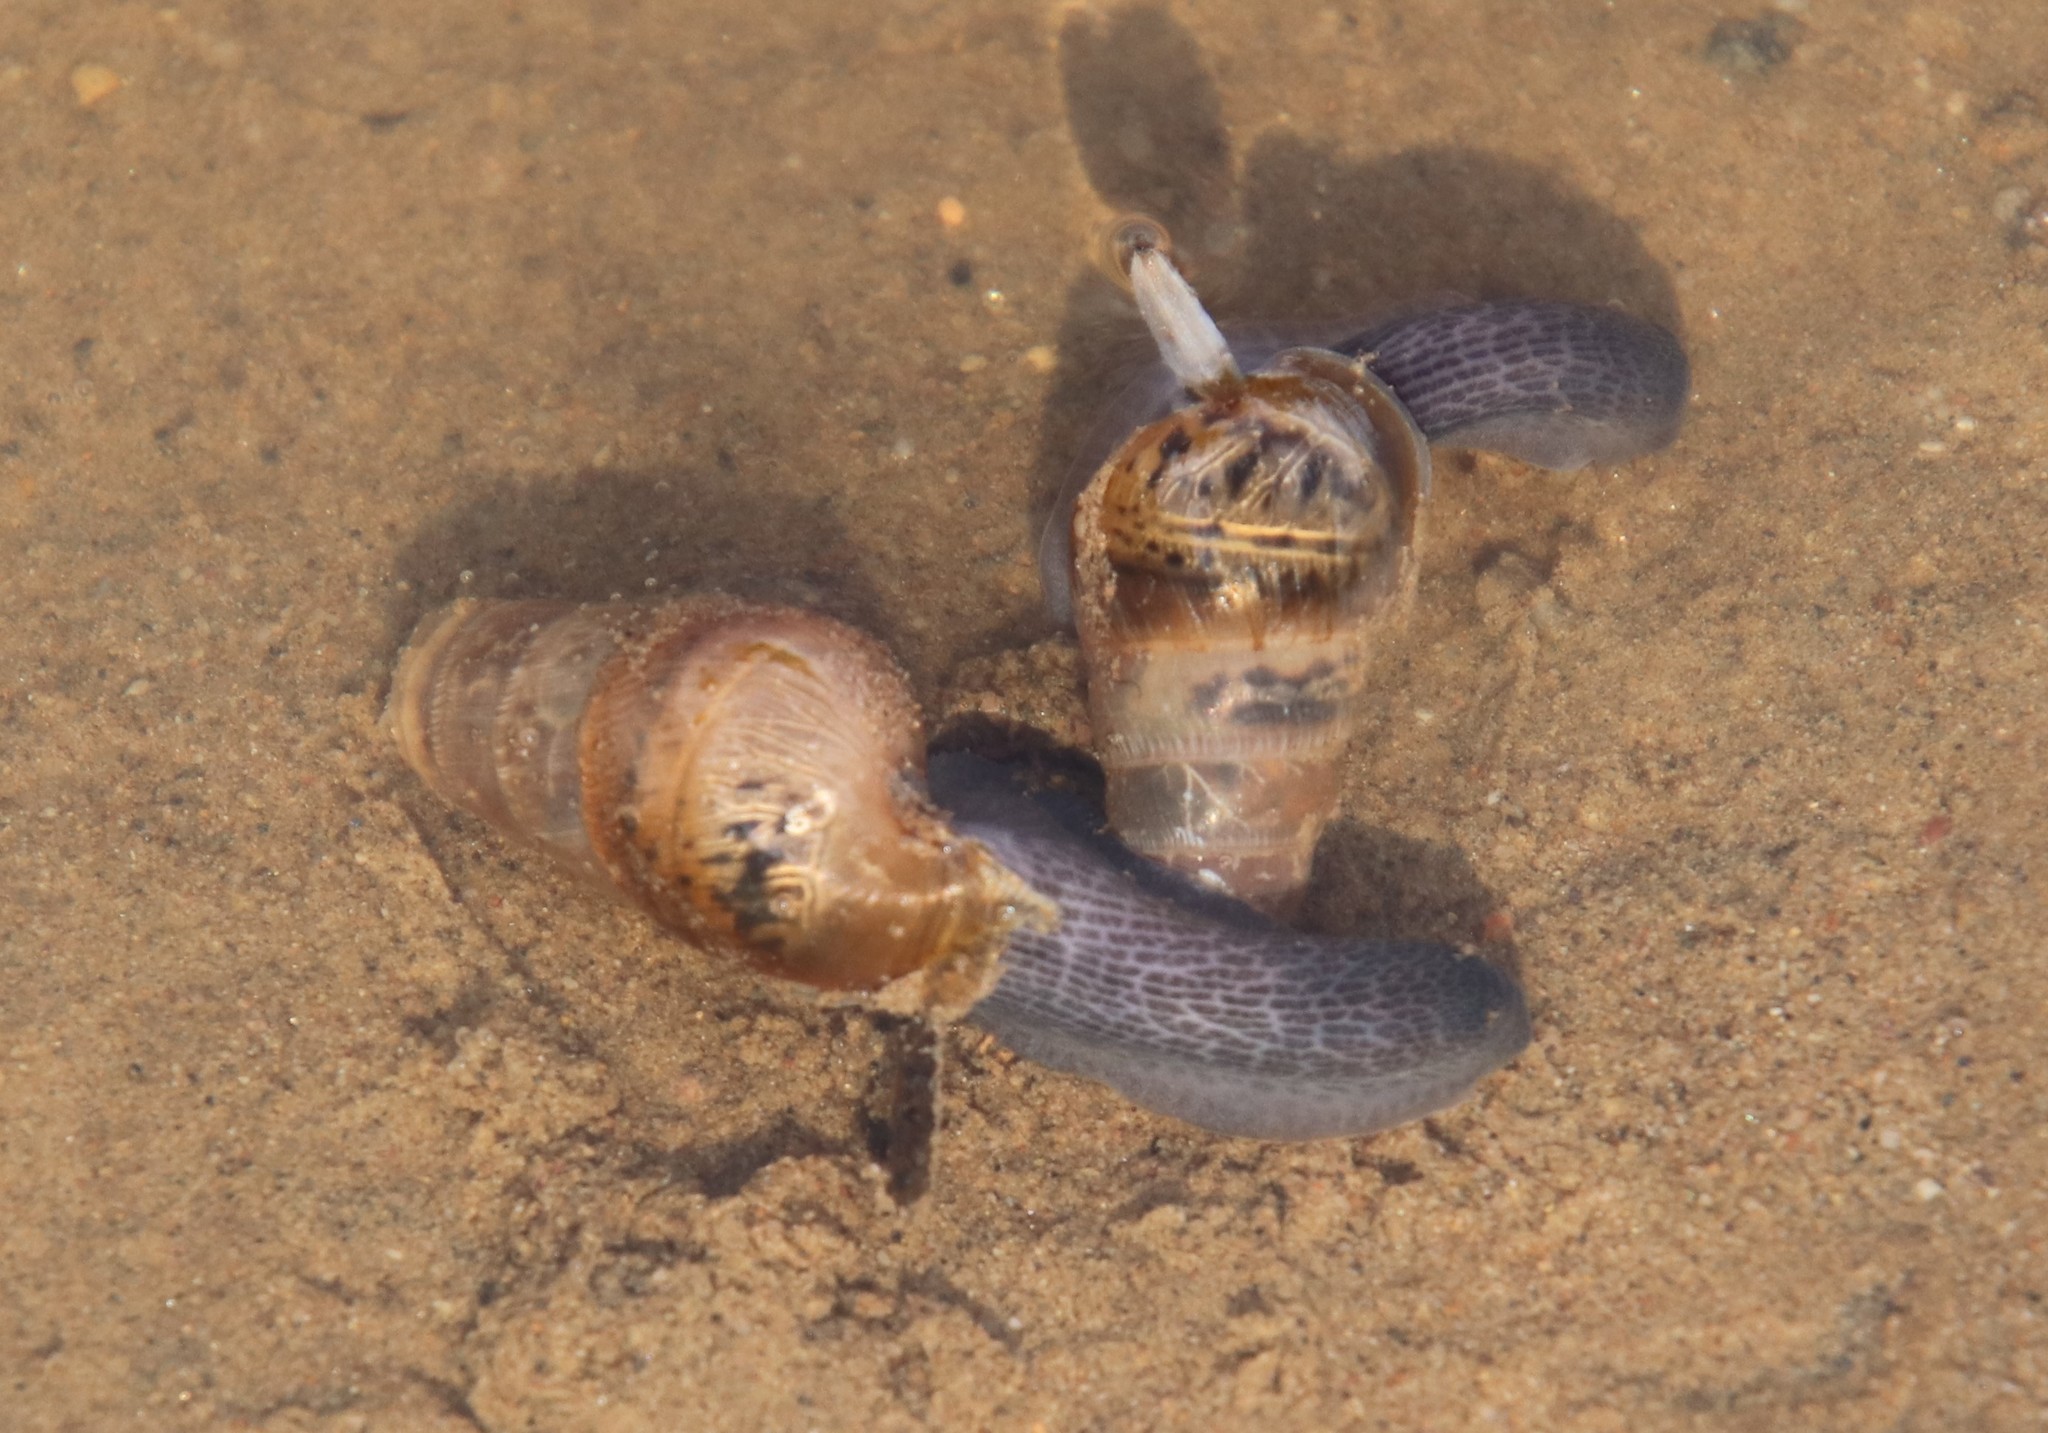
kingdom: Animalia
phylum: Mollusca
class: Gastropoda
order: Stylommatophora
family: Achatinidae
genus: Rumina
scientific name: Rumina decollata
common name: Decollate snail
